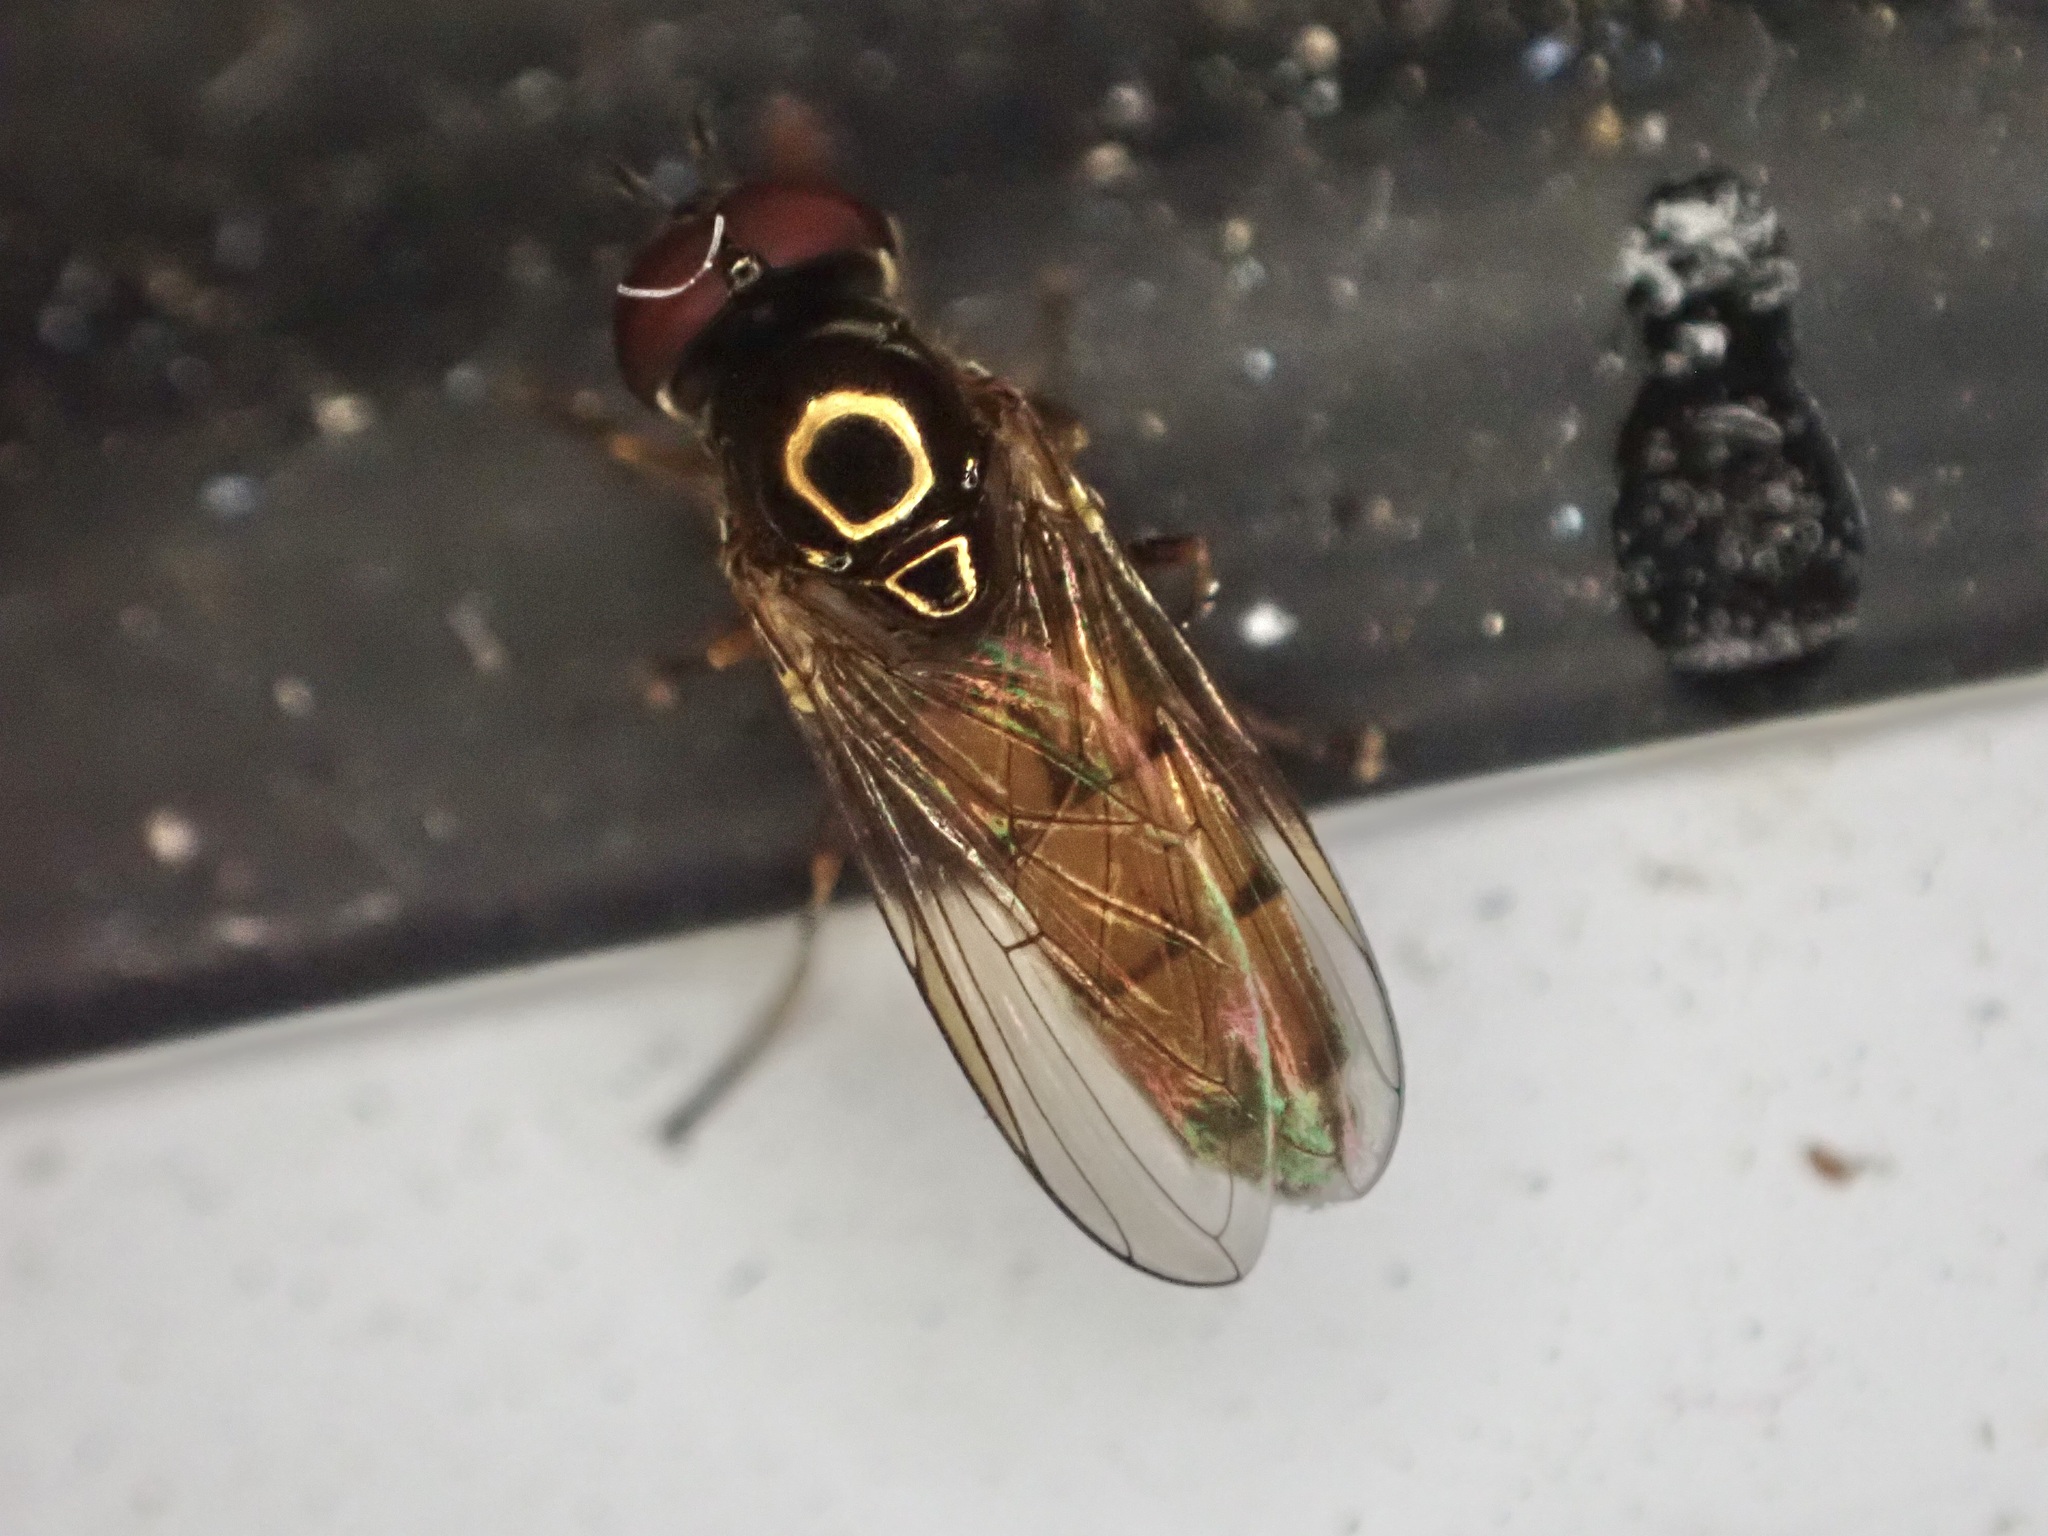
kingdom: Animalia
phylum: Arthropoda
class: Insecta
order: Diptera
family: Syrphidae
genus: Melanostoma
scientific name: Melanostoma fasciatum
